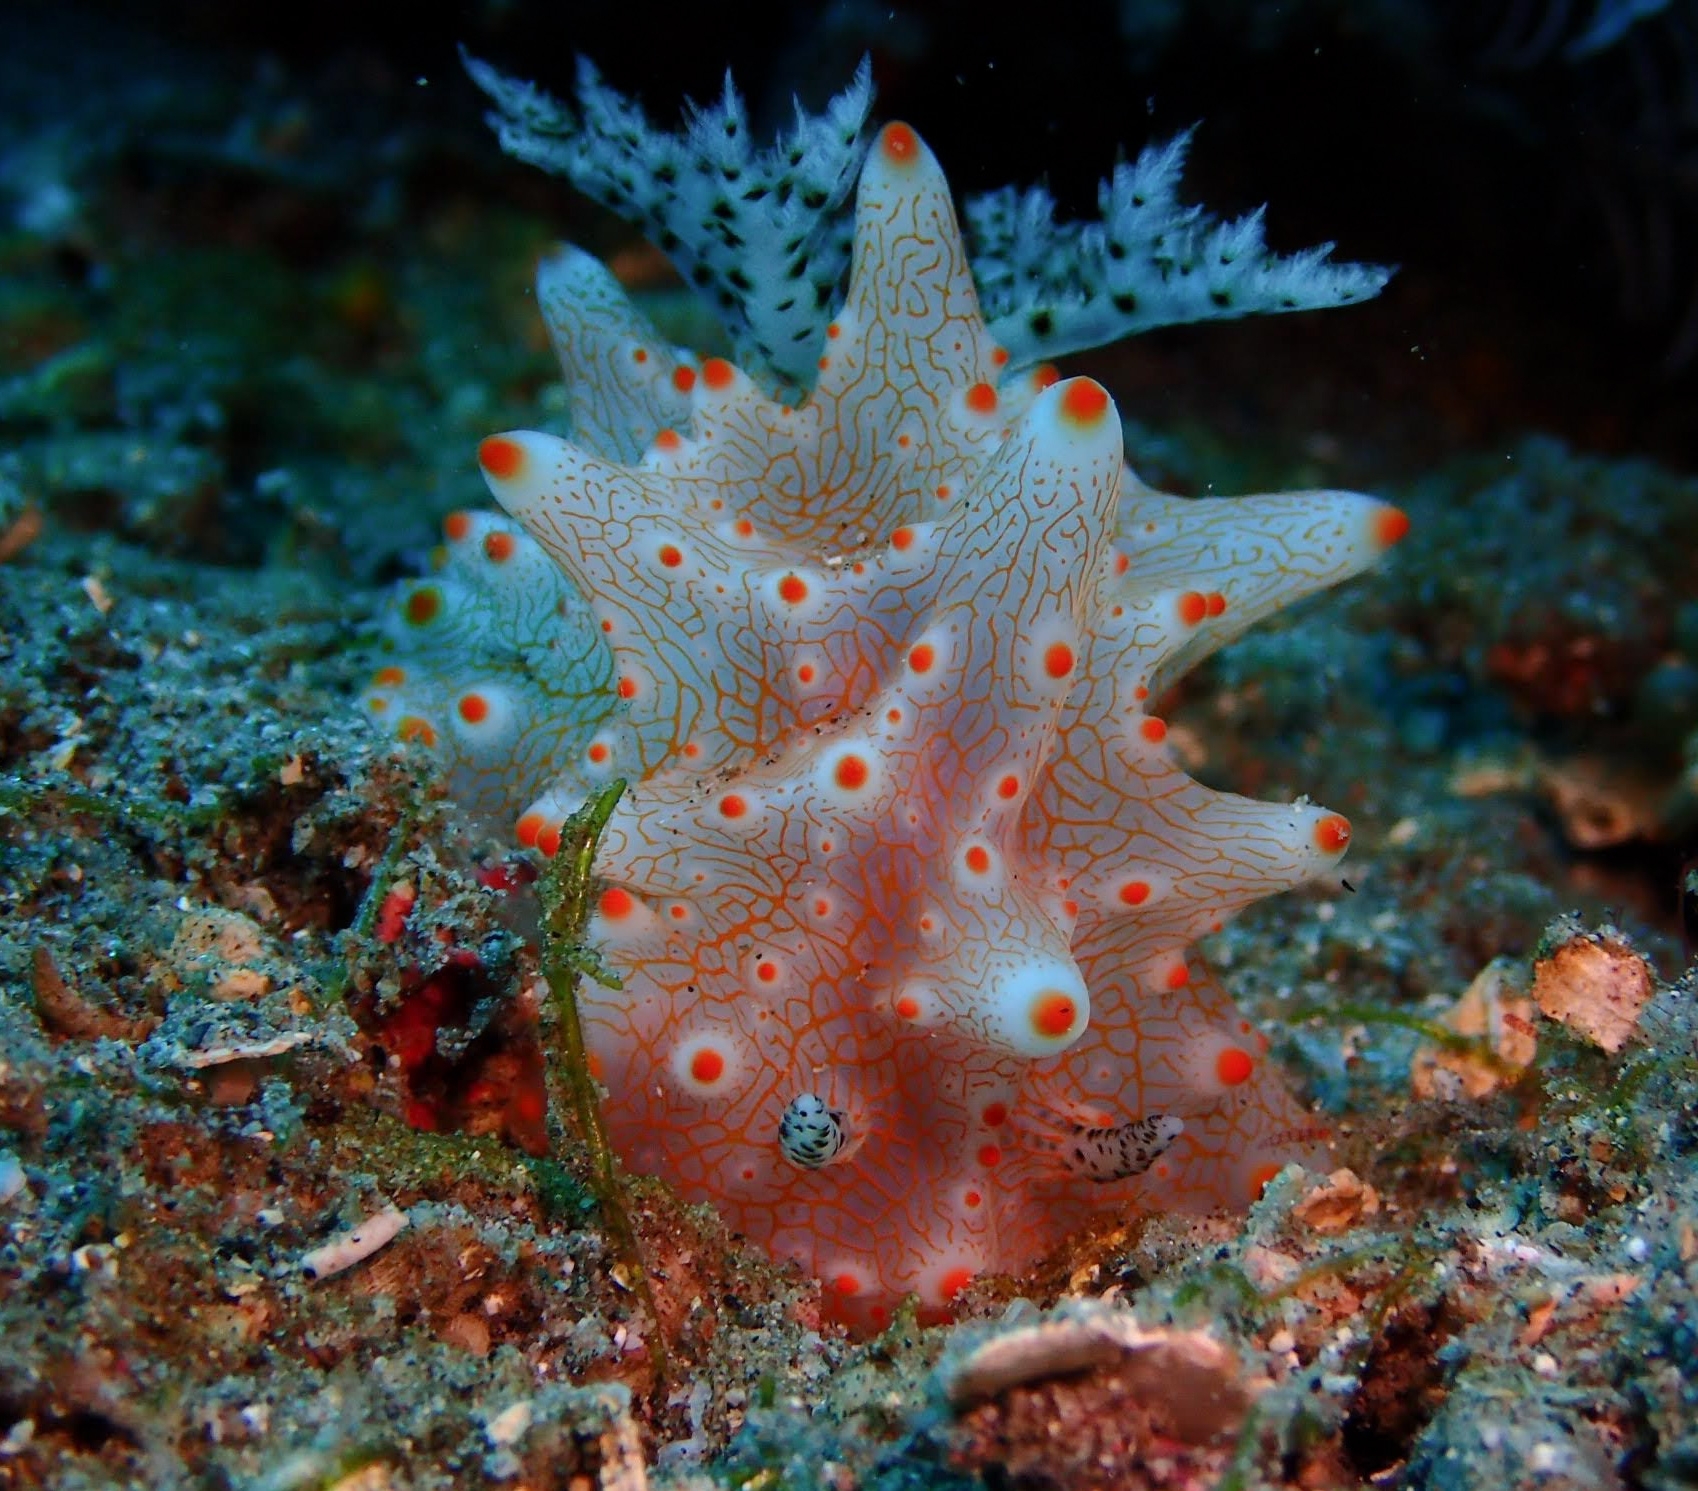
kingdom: Animalia
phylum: Mollusca
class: Gastropoda
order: Nudibranchia
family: Discodorididae
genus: Halgerda
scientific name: Halgerda batangas
